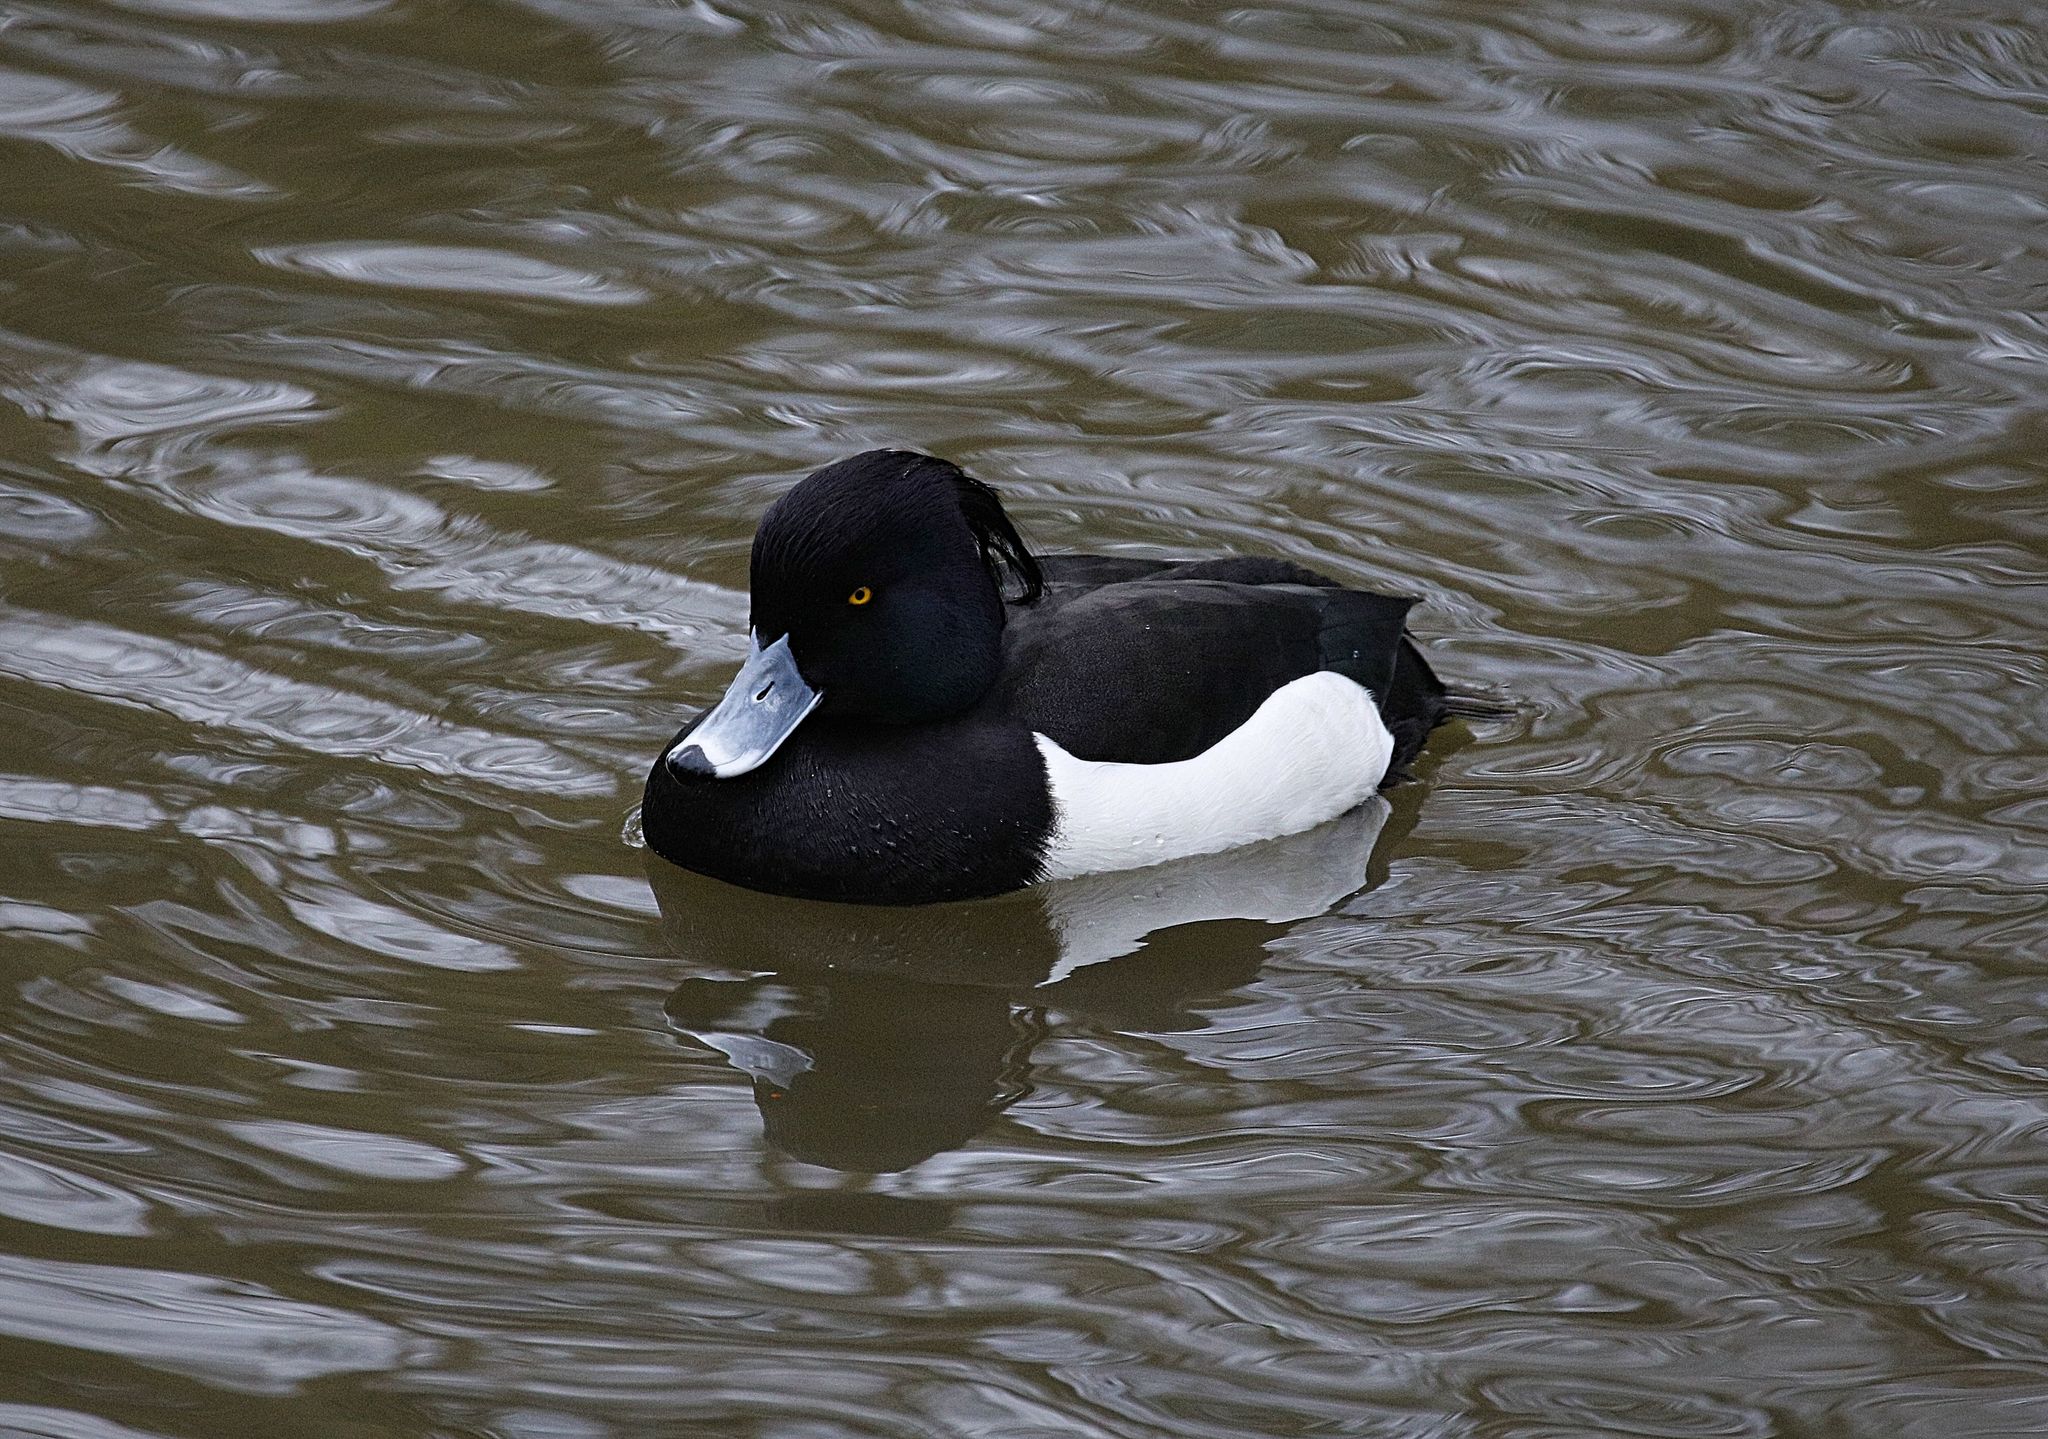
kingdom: Animalia
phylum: Chordata
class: Aves
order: Anseriformes
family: Anatidae
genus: Aythya
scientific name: Aythya fuligula
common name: Tufted duck
